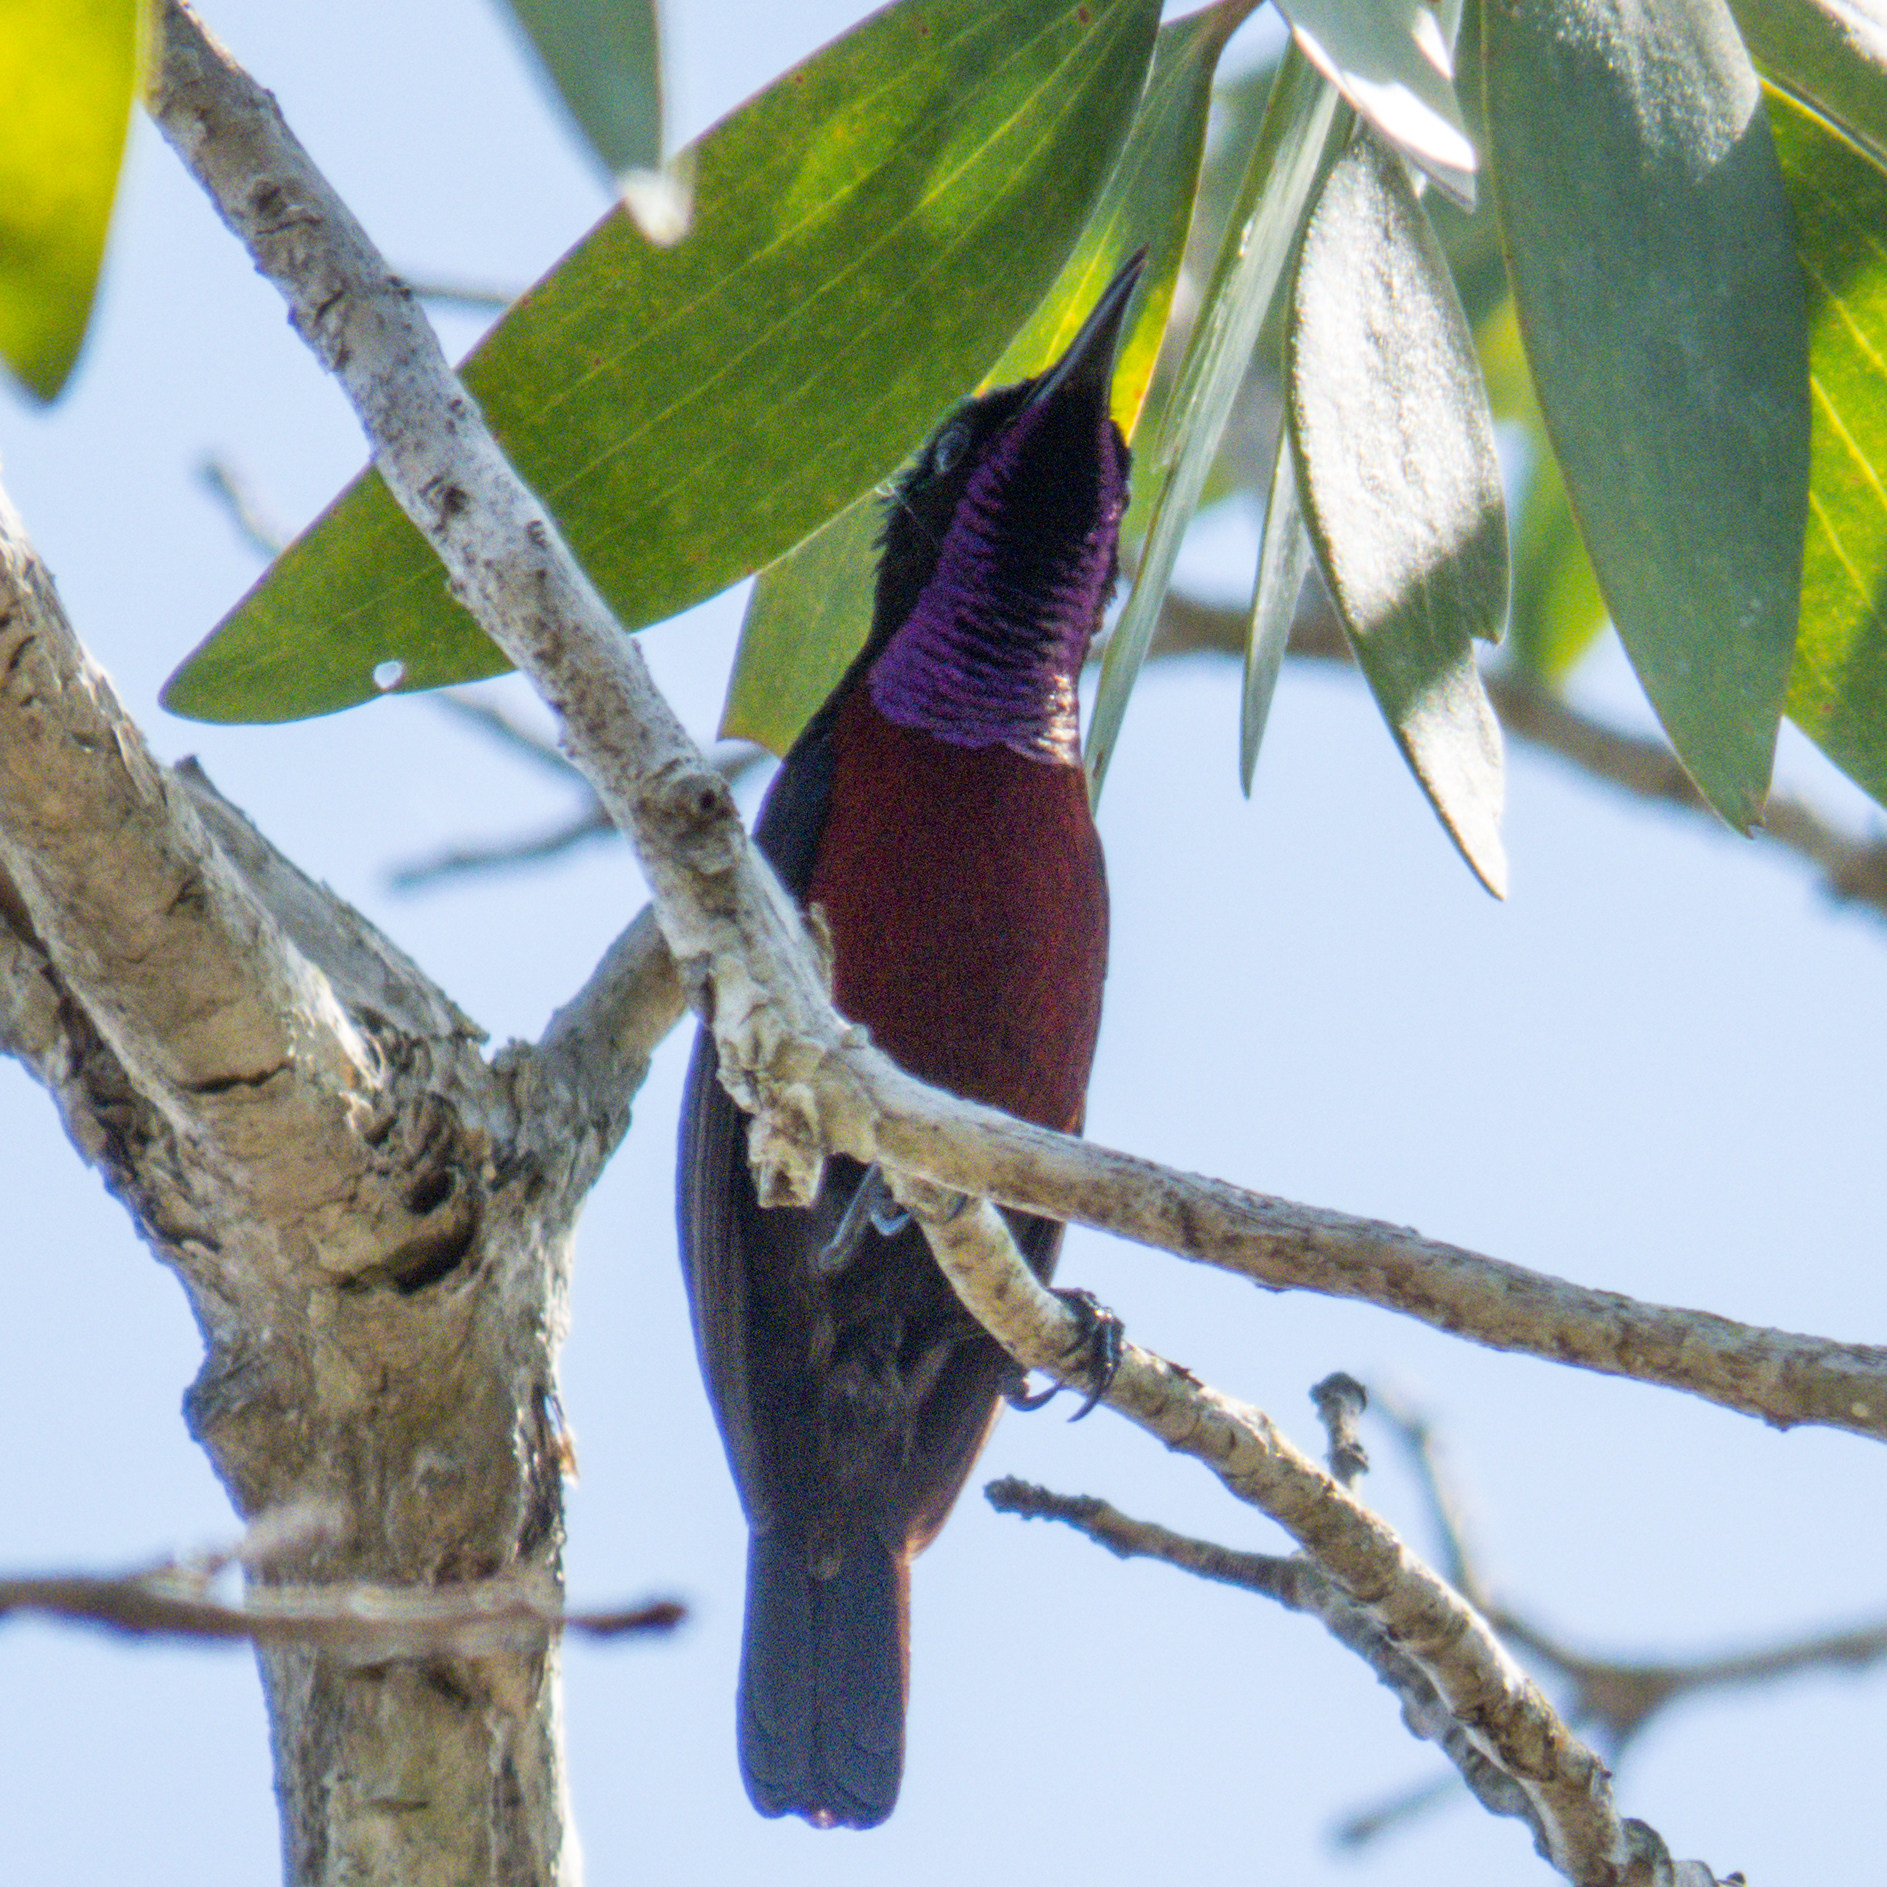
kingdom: Animalia
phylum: Chordata
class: Aves
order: Passeriformes
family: Nectariniidae
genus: Leptocoma
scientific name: Leptocoma brasiliana
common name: Van hasselt's sunbird
